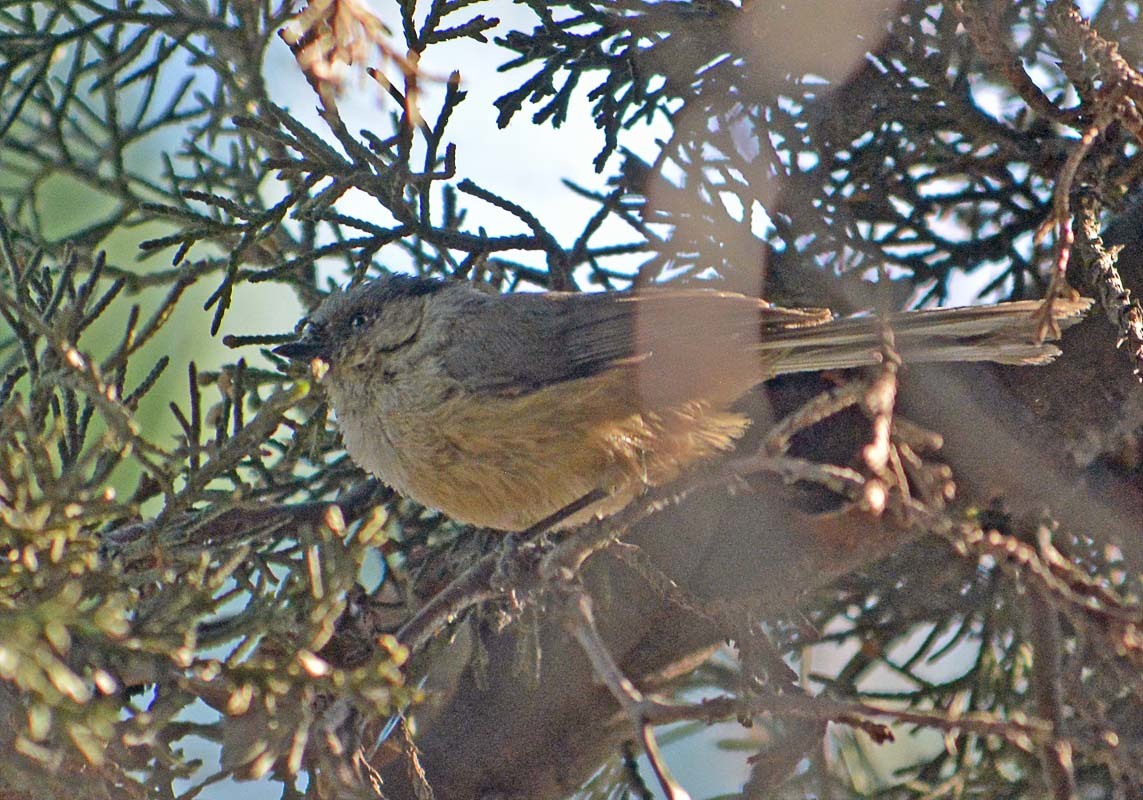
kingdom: Animalia
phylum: Chordata
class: Aves
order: Passeriformes
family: Aegithalidae
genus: Psaltriparus
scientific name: Psaltriparus minimus
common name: American bushtit
